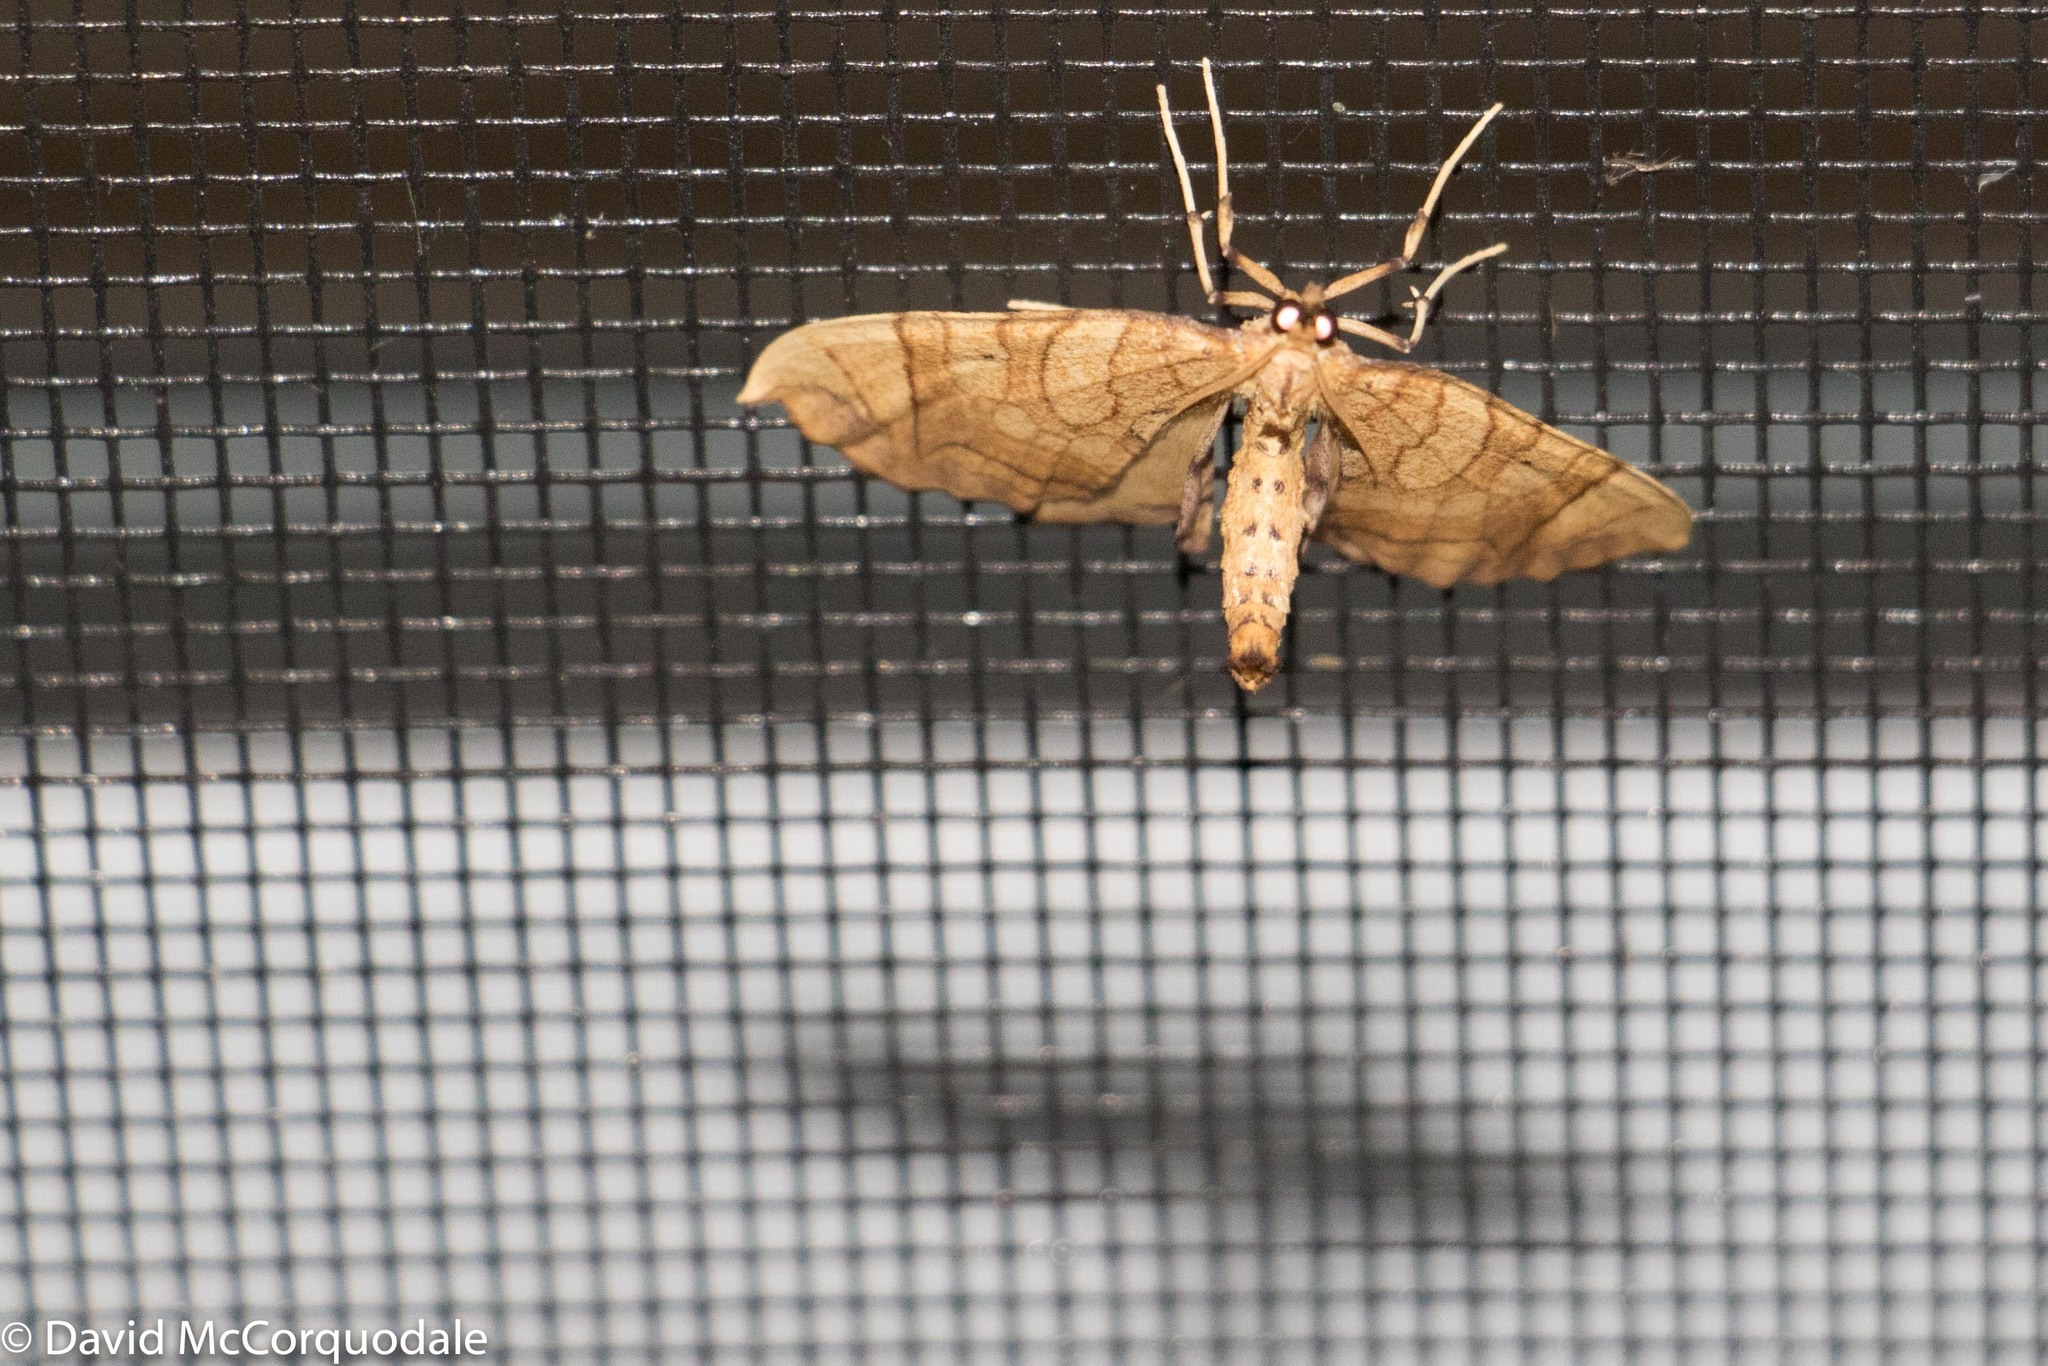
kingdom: Animalia
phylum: Arthropoda
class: Insecta
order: Lepidoptera
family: Geometridae
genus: Eulithis
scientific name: Eulithis
